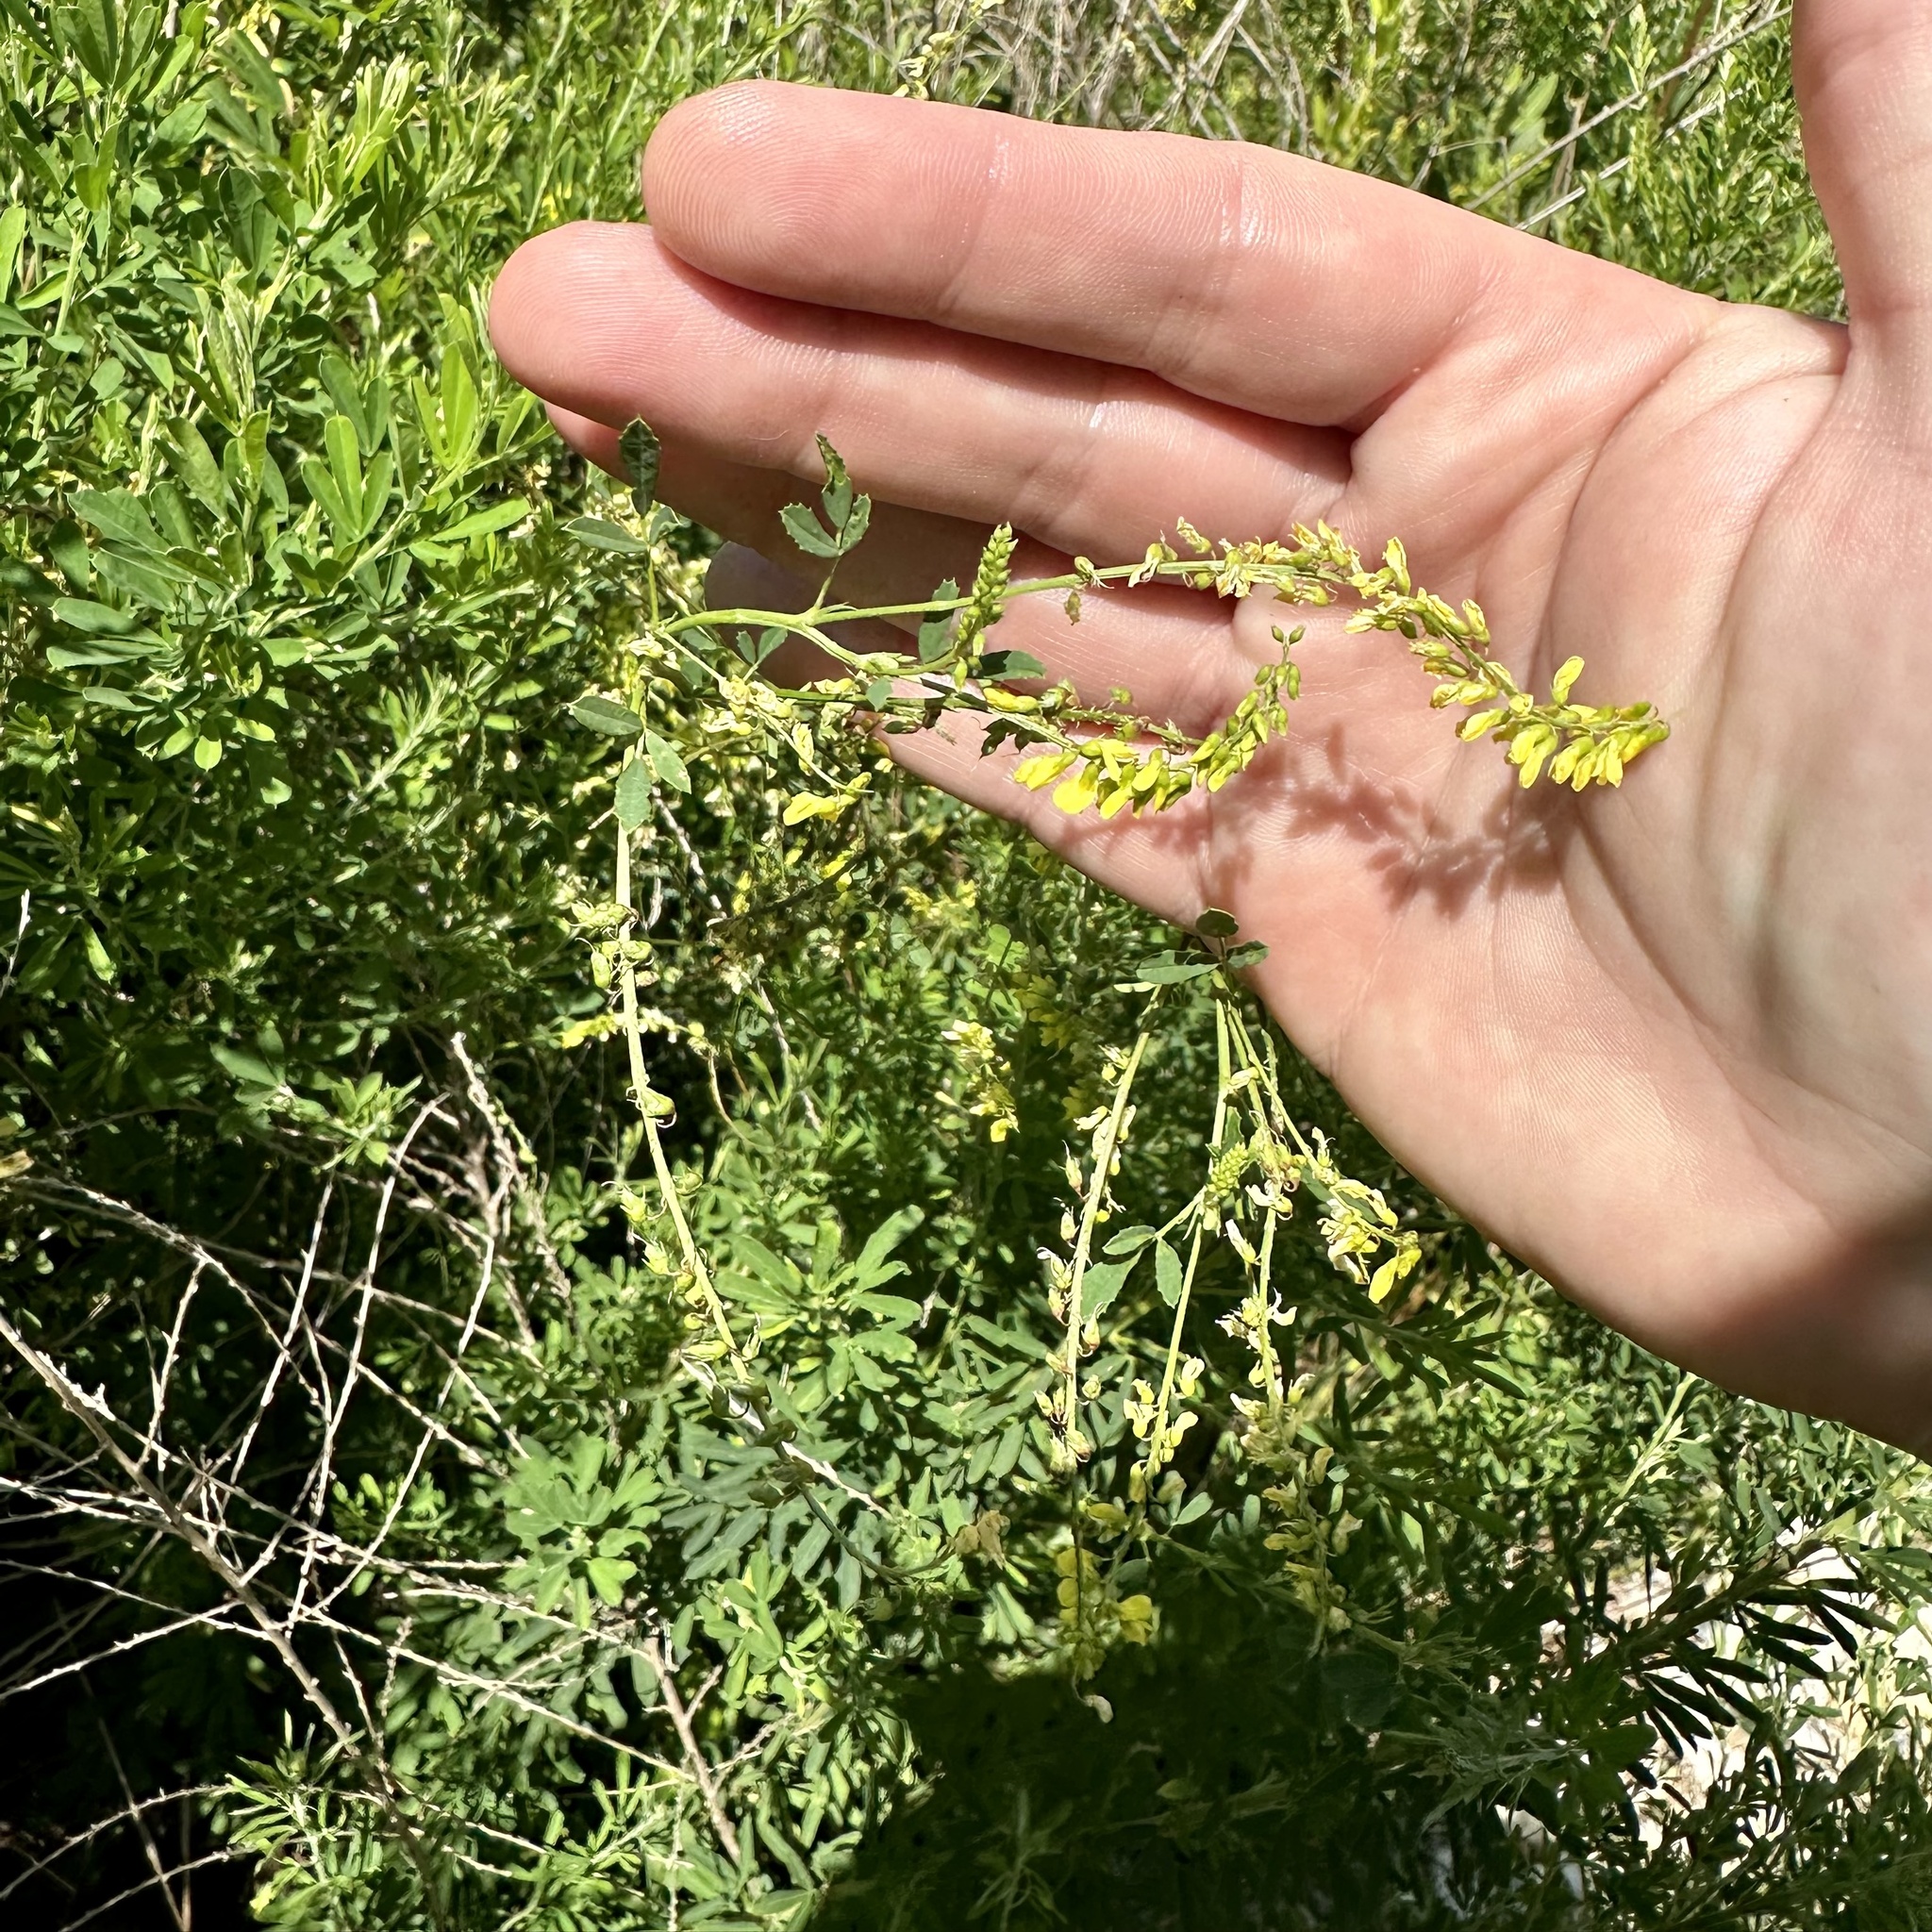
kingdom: Plantae
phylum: Tracheophyta
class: Magnoliopsida
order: Fabales
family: Fabaceae
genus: Melilotus
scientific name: Melilotus officinalis
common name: Sweetclover
